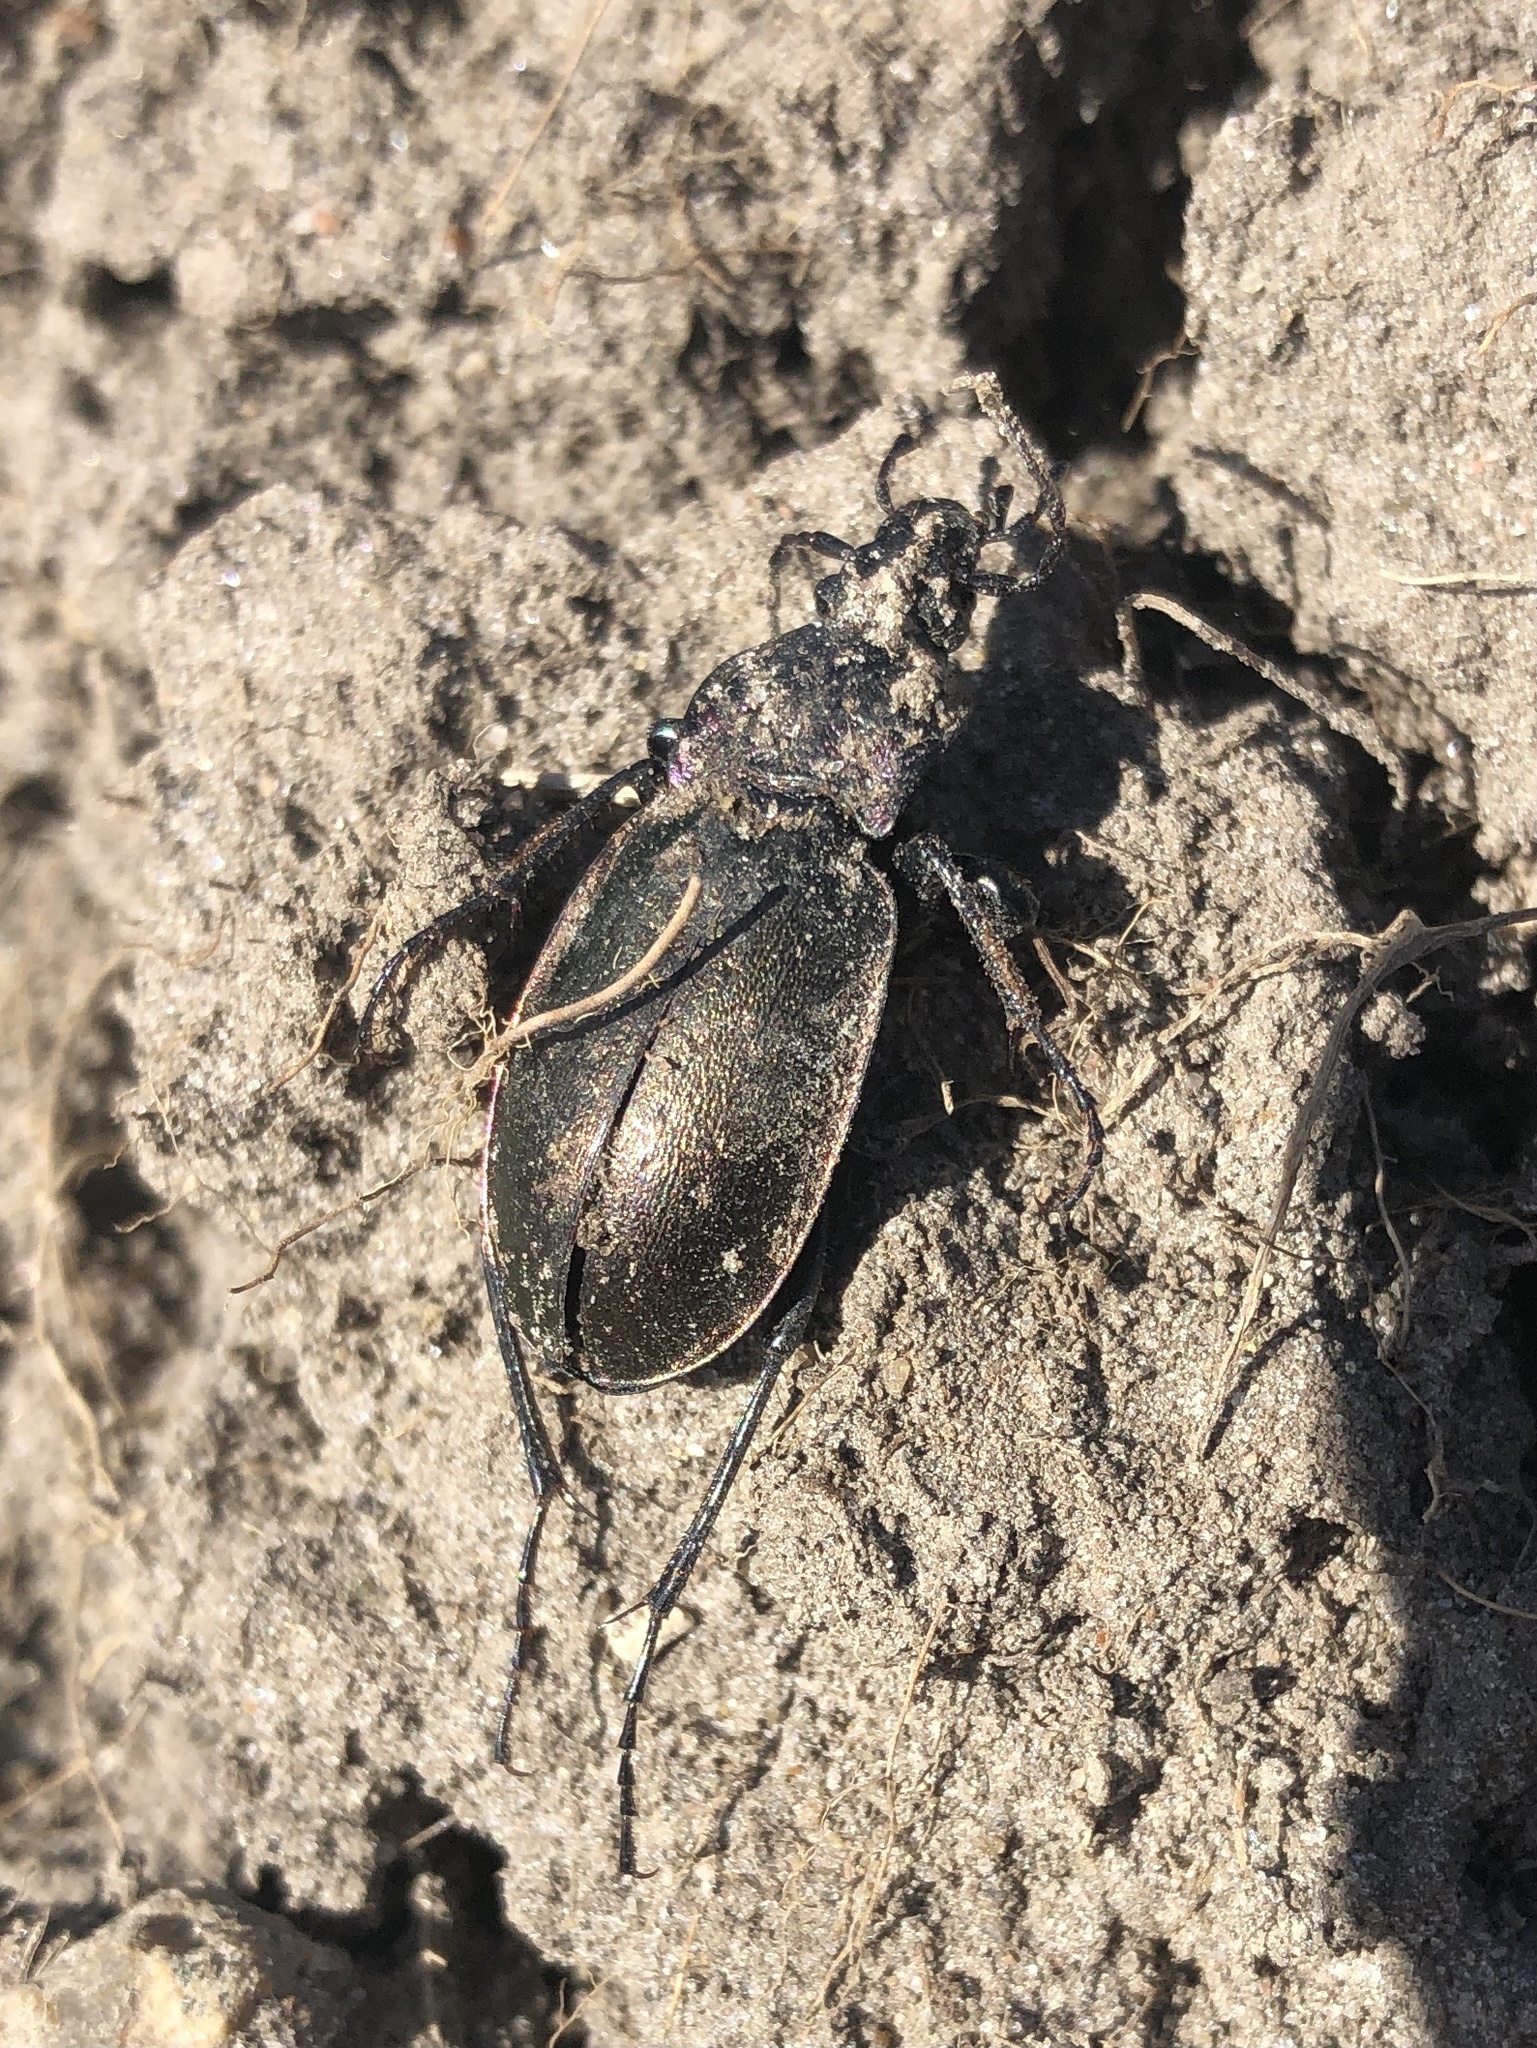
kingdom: Animalia
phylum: Arthropoda
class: Insecta
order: Coleoptera
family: Carabidae
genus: Carabus
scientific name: Carabus nemoralis
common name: European ground beetle
